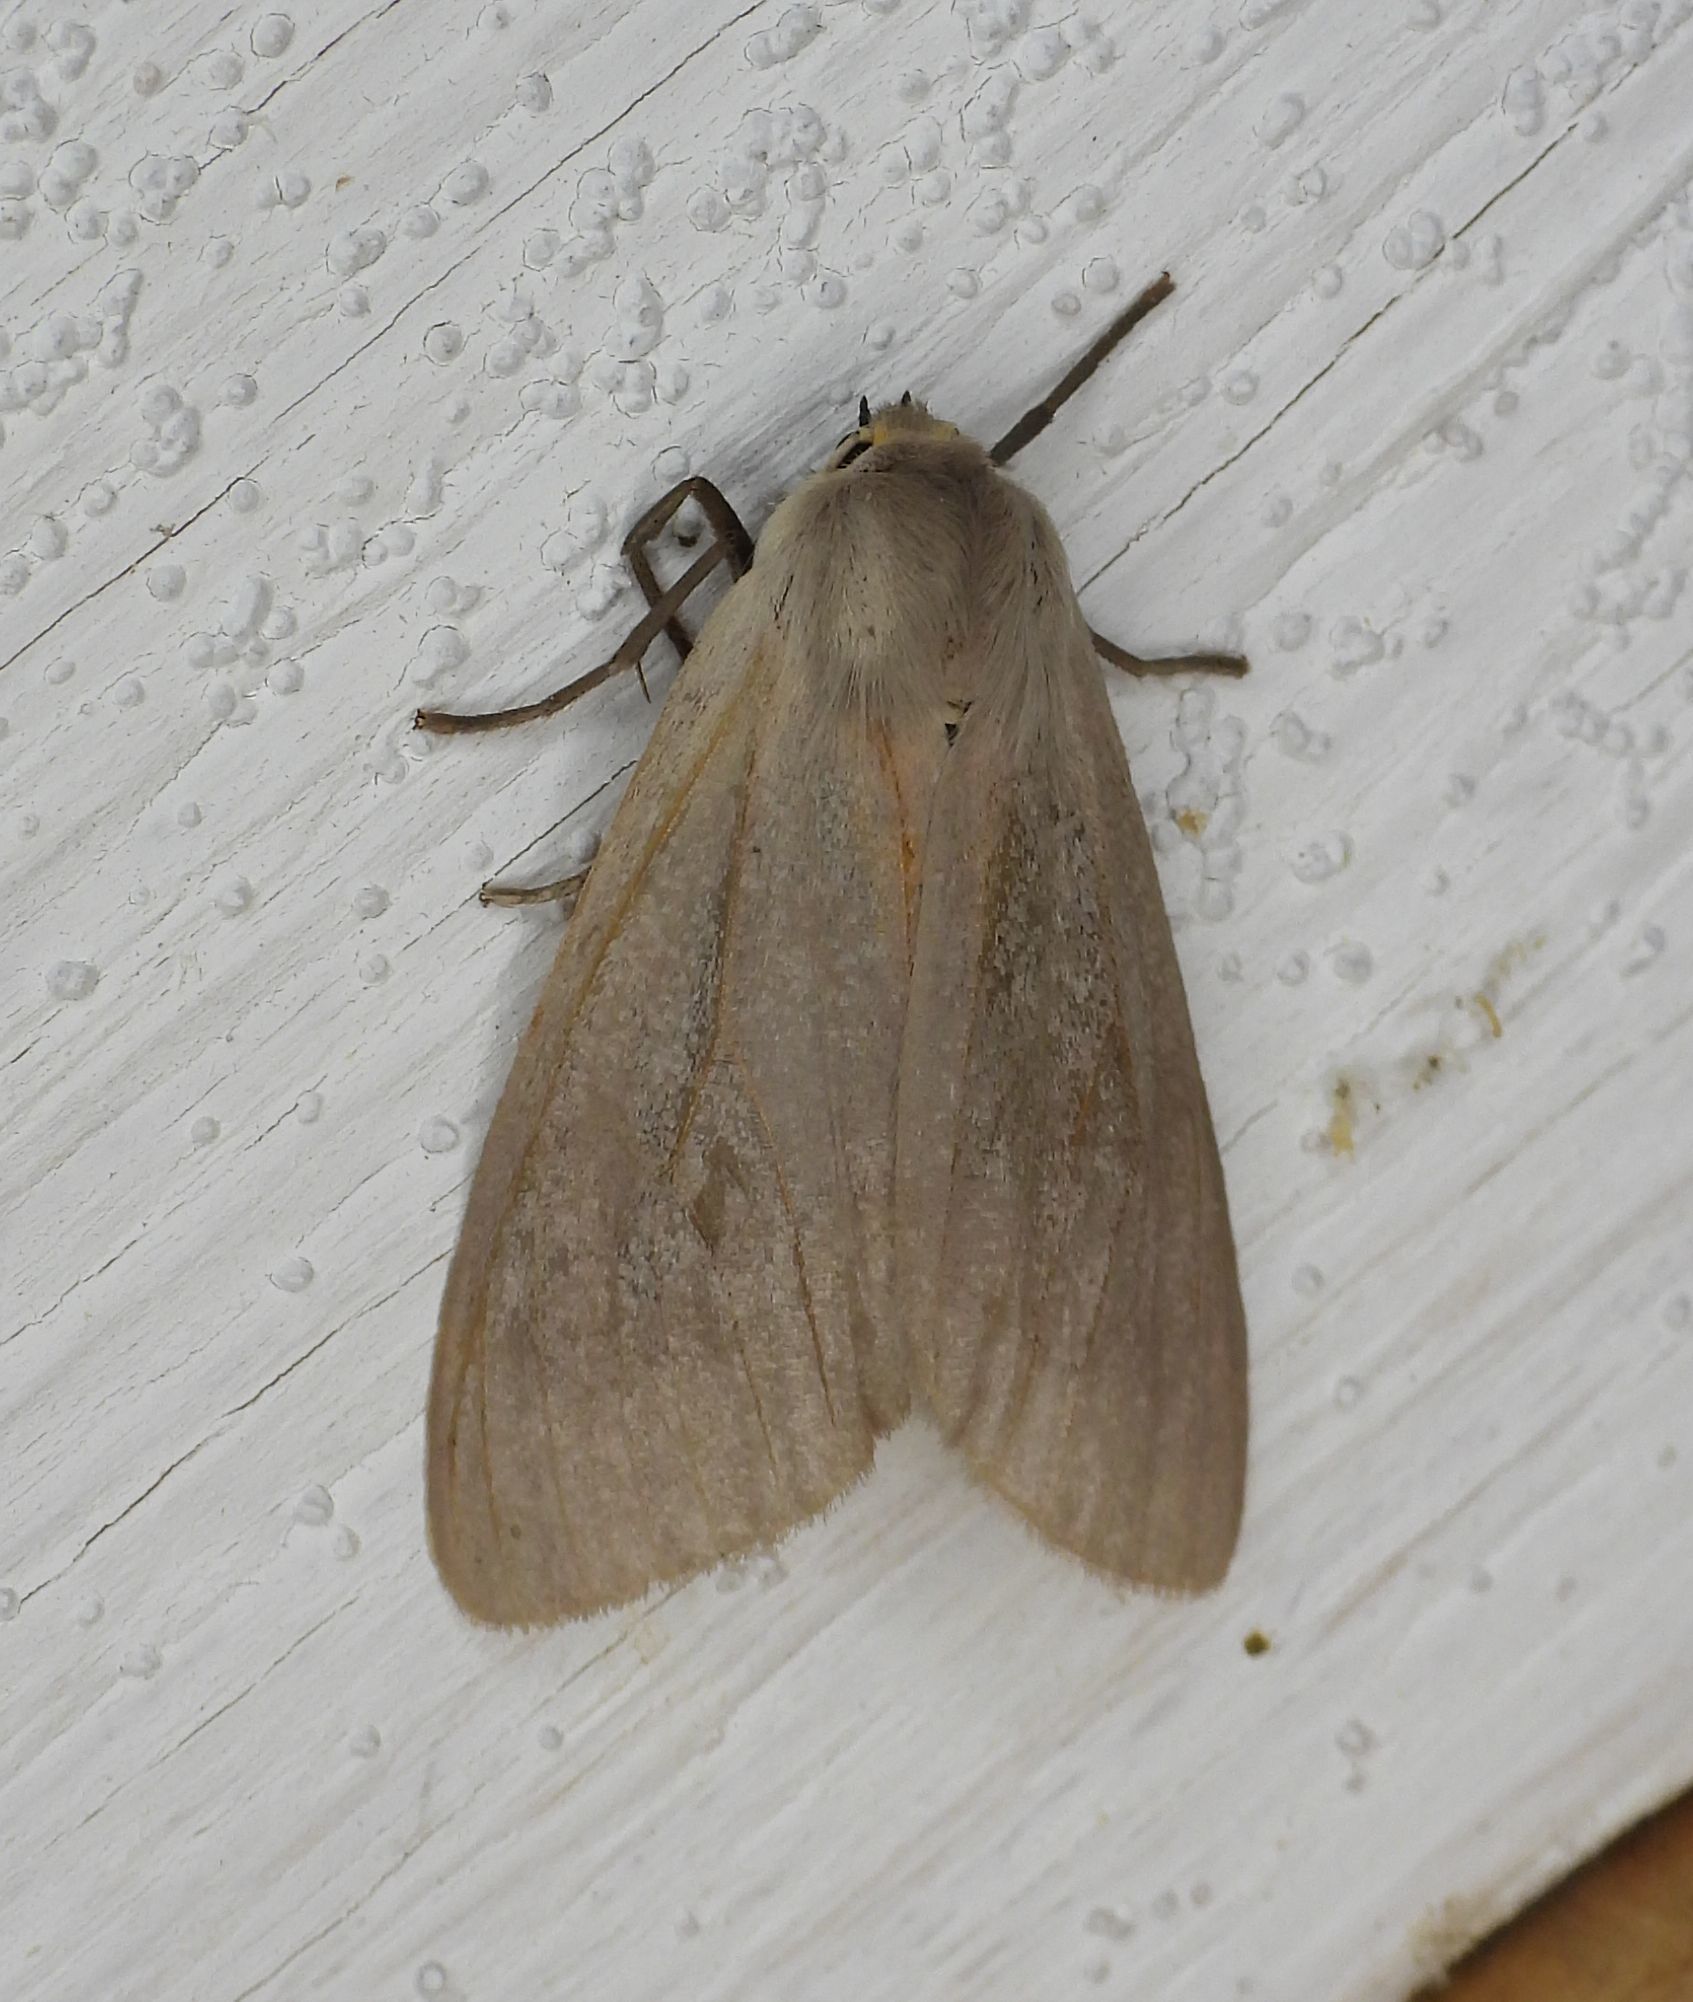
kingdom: Animalia
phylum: Arthropoda
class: Insecta
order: Lepidoptera
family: Erebidae
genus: Euchaetes
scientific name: Euchaetes egle
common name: Milkweed tussock moth
